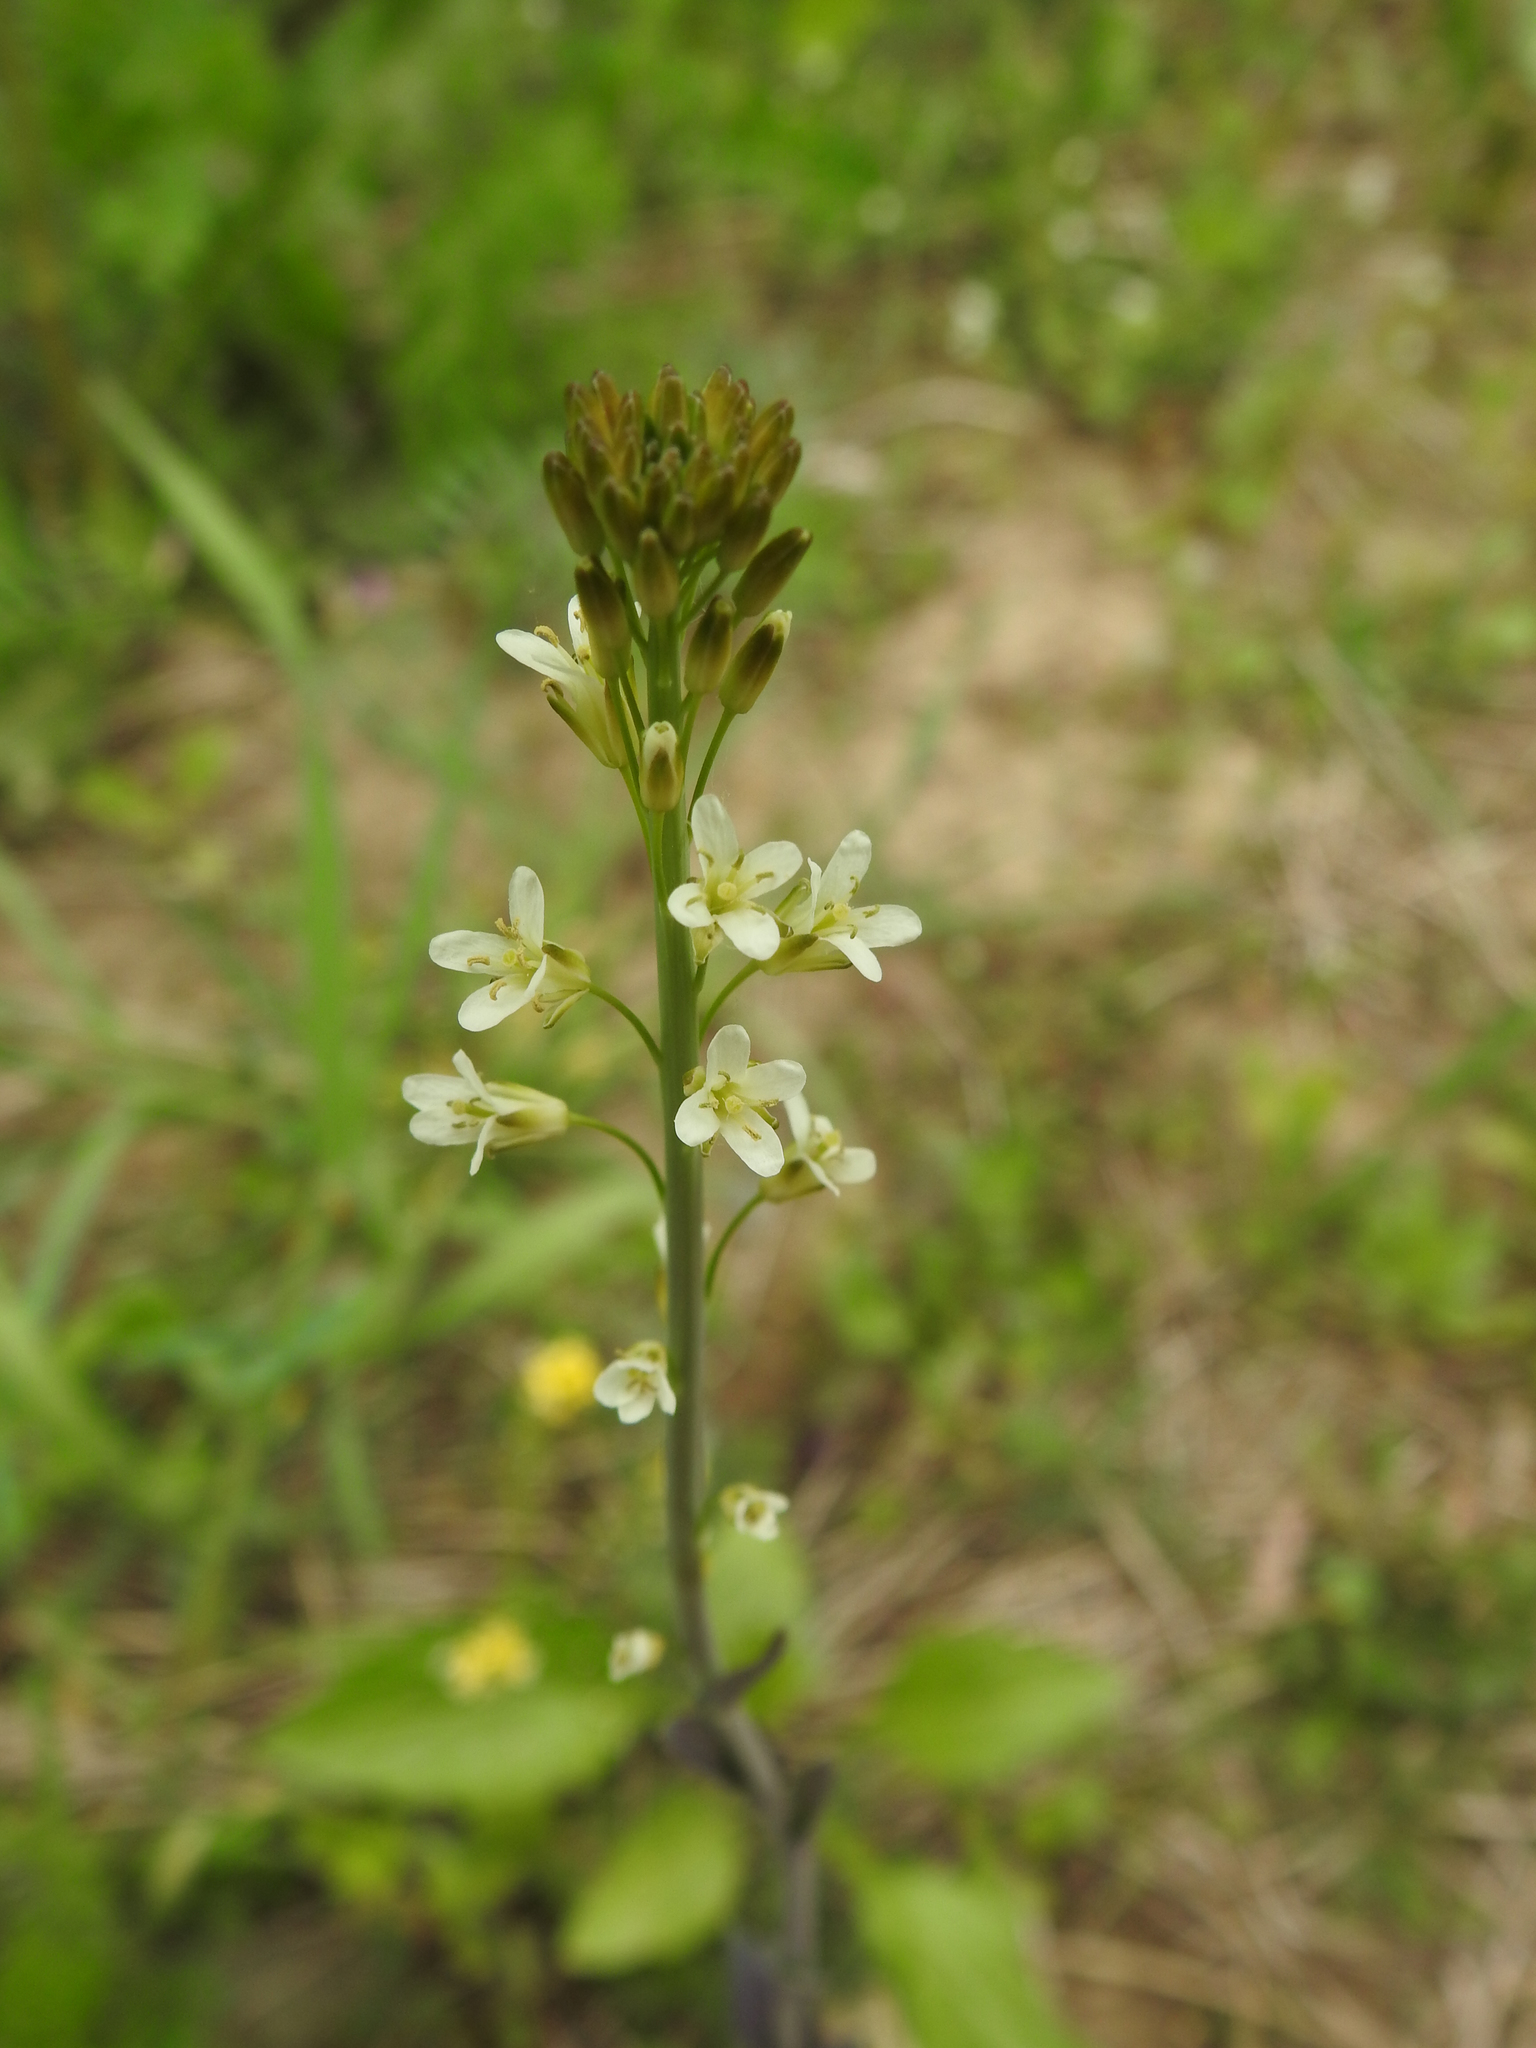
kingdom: Plantae
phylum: Tracheophyta
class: Magnoliopsida
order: Brassicales
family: Brassicaceae
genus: Turritis
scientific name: Turritis glabra
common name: Tower rockcress
